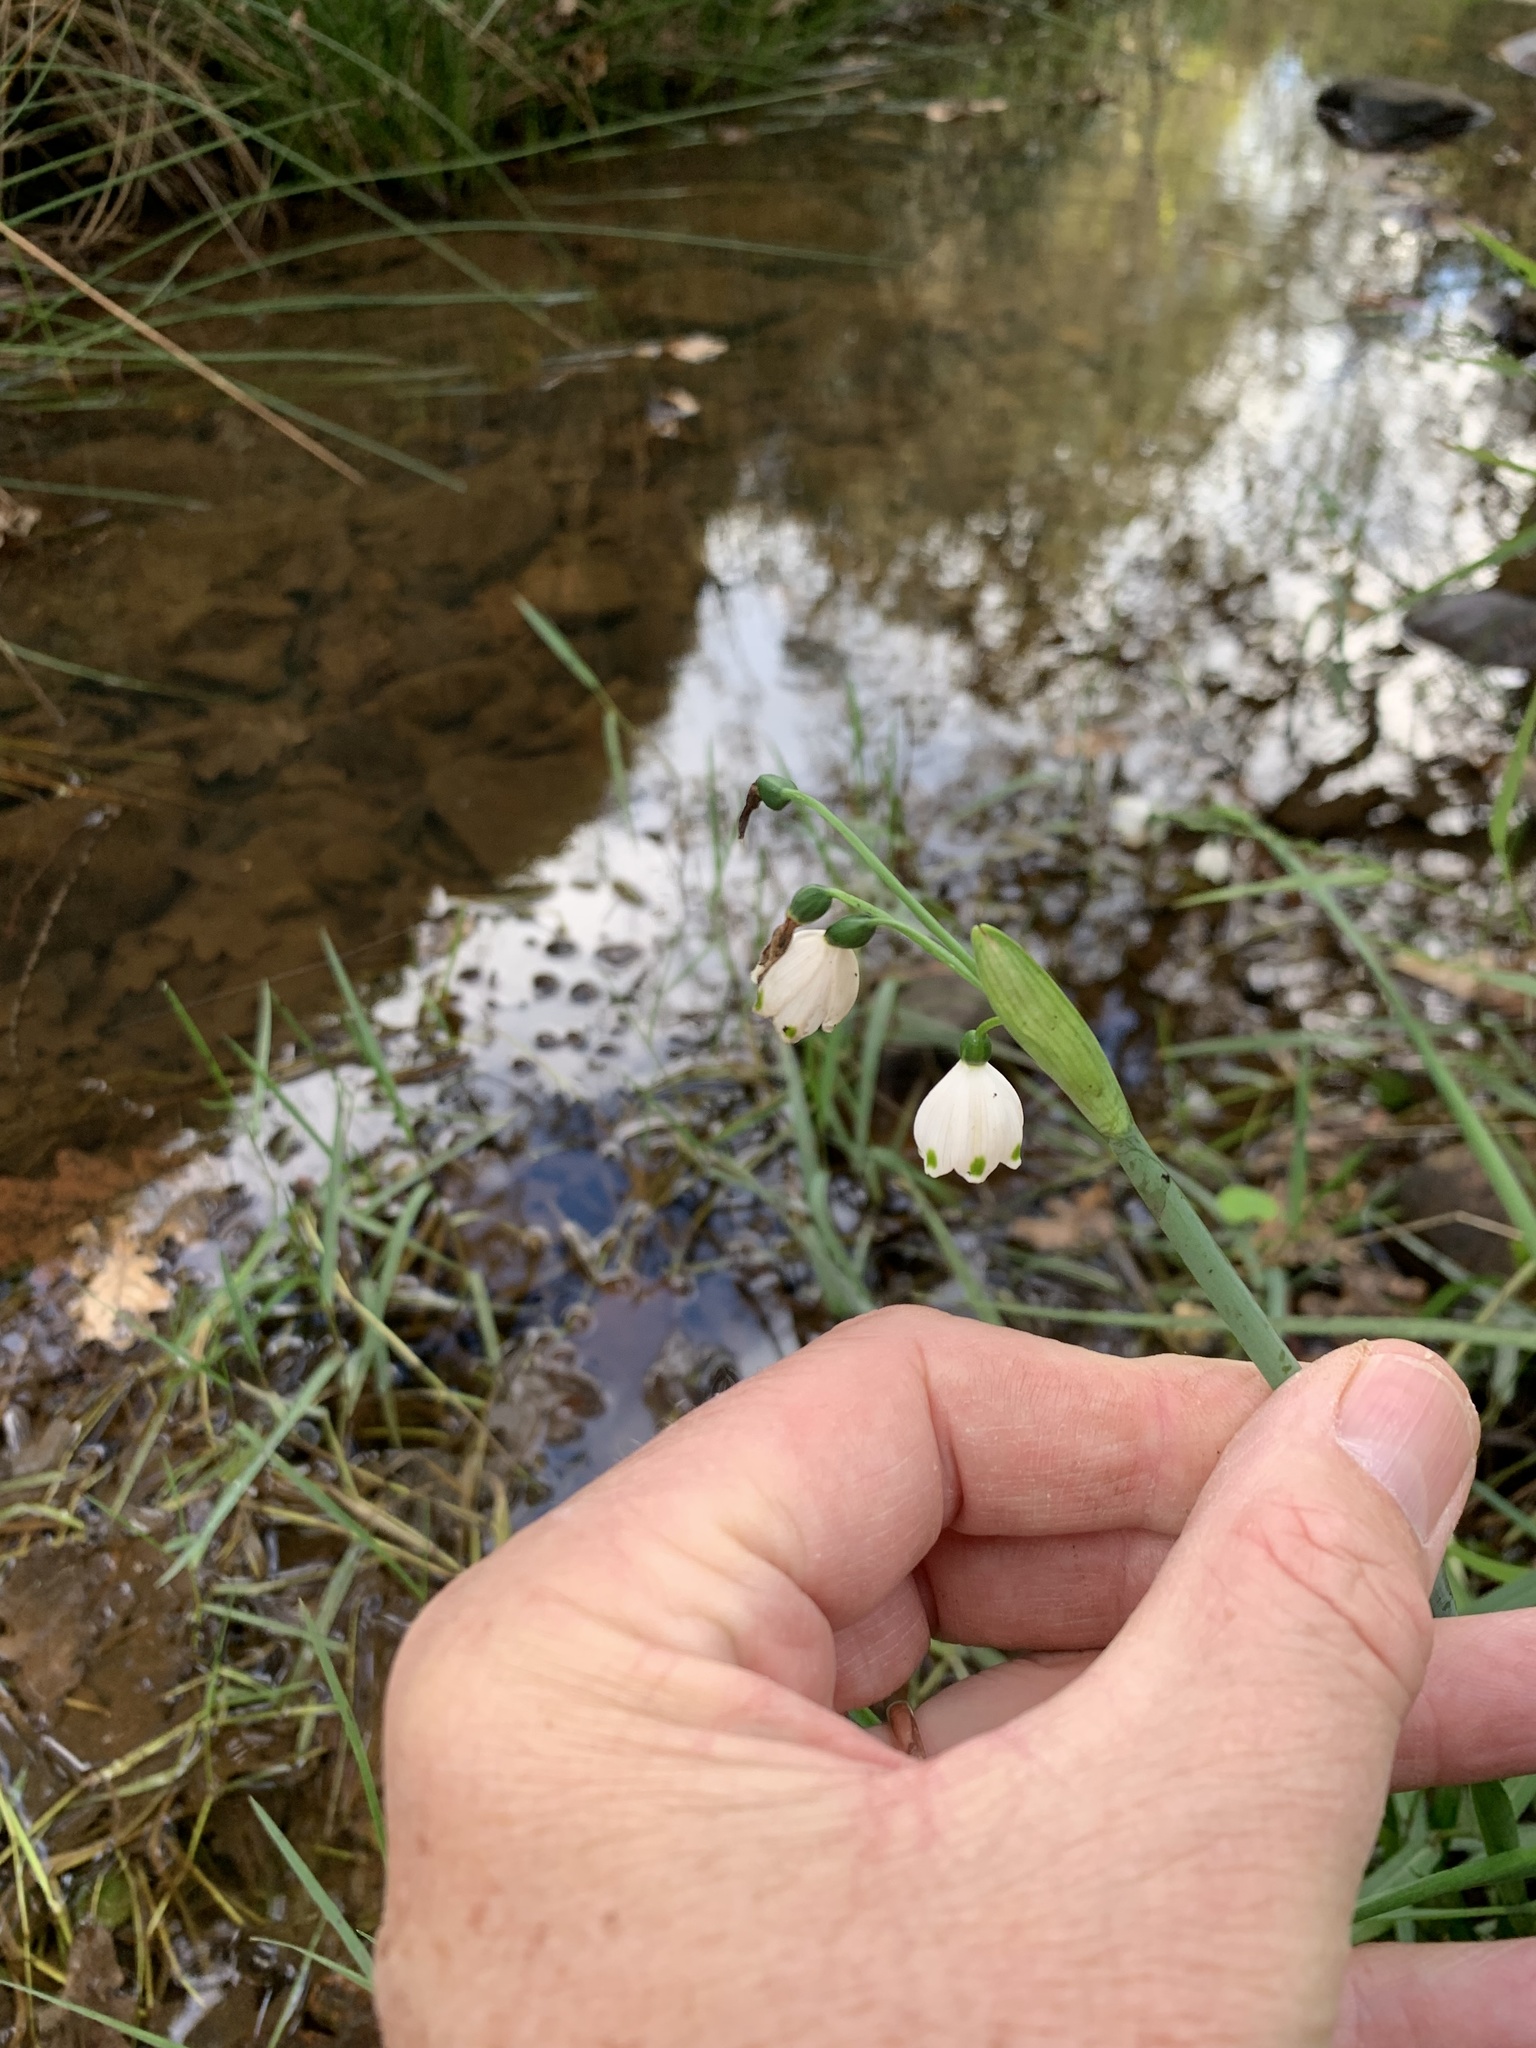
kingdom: Plantae
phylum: Tracheophyta
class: Liliopsida
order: Asparagales
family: Amaryllidaceae
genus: Leucojum
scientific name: Leucojum aestivum
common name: Summer snowflake
